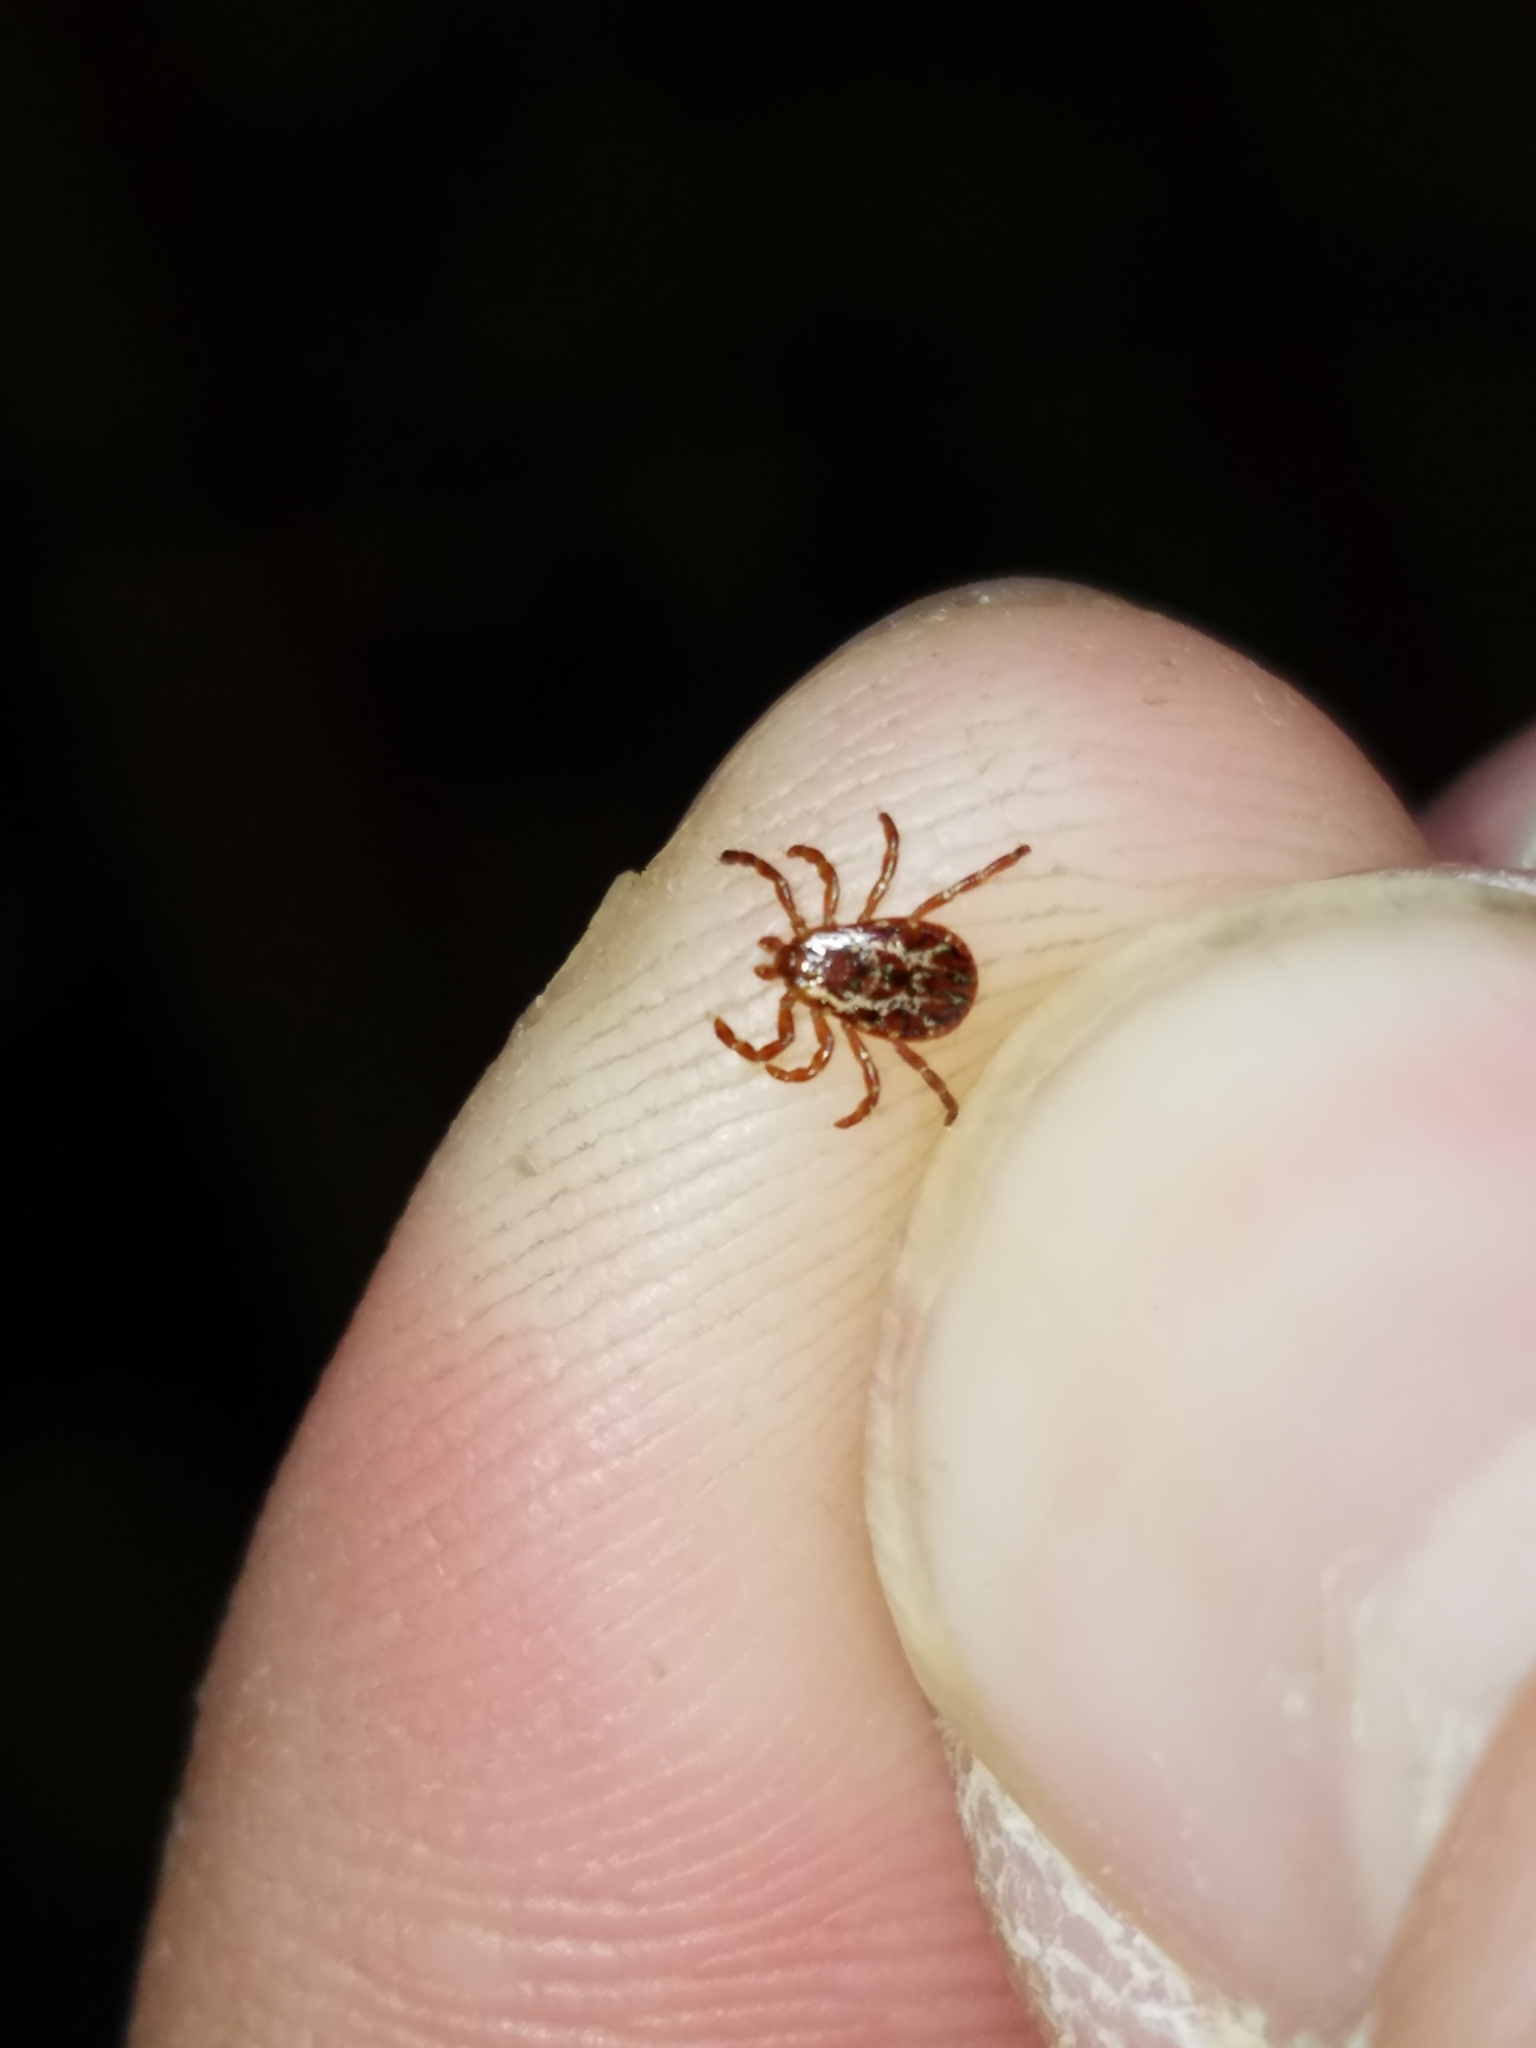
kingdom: Animalia
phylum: Arthropoda
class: Arachnida
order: Ixodida
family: Ixodidae
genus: Dermacentor
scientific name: Dermacentor variabilis
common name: American dog tick
